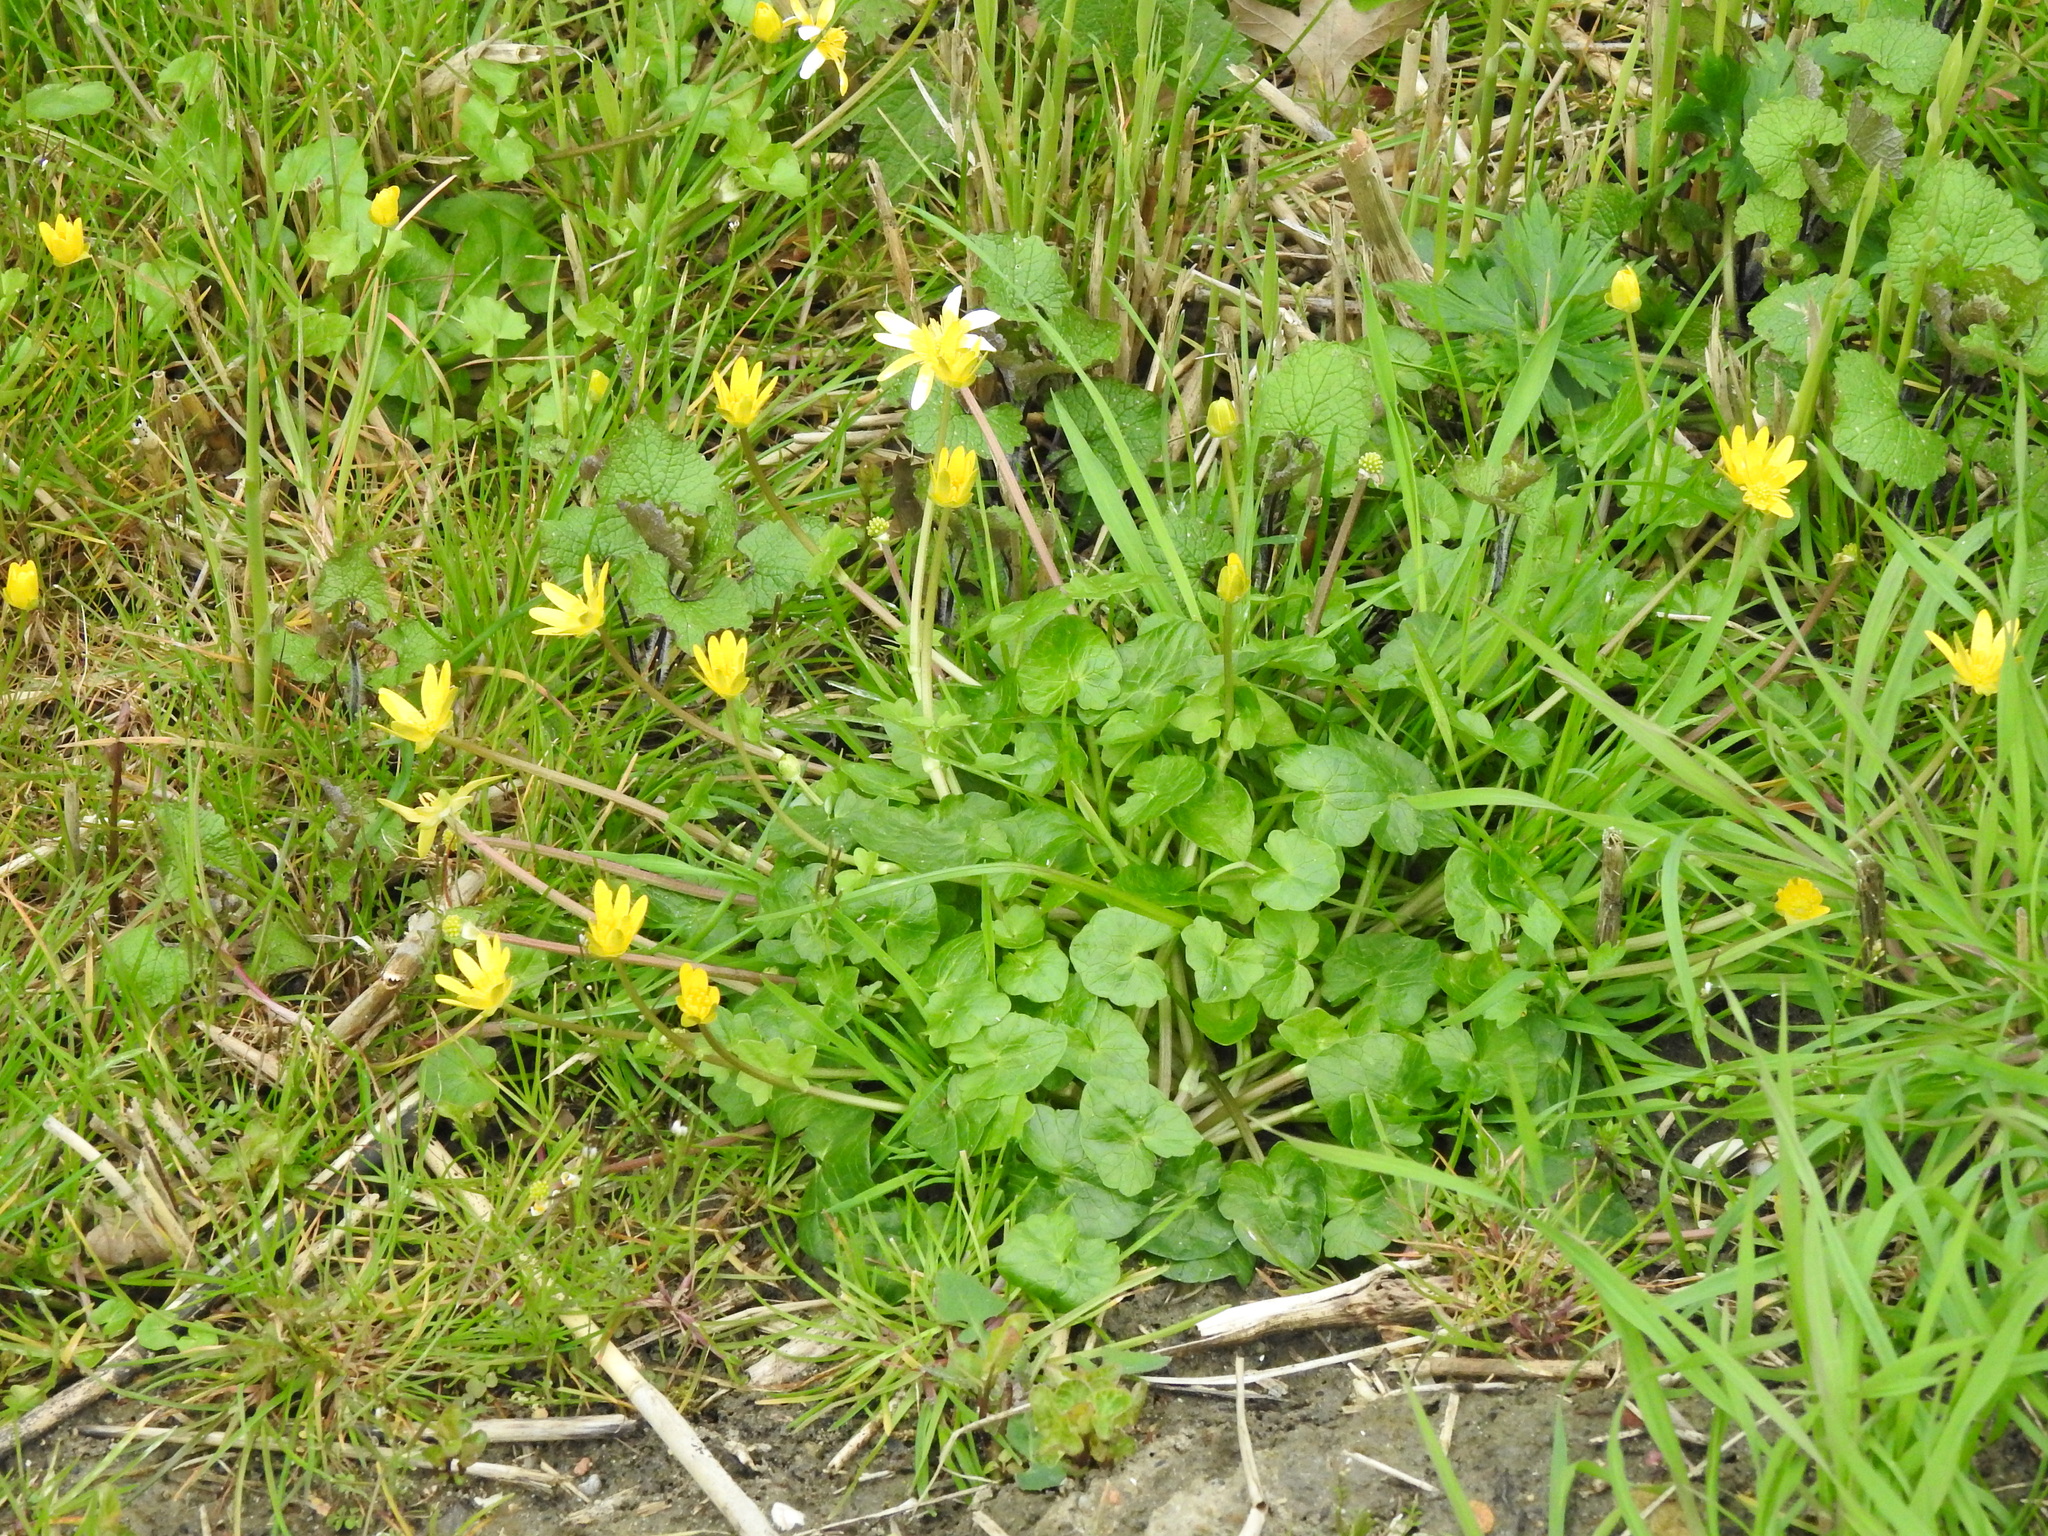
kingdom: Plantae
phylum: Tracheophyta
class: Magnoliopsida
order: Ranunculales
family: Ranunculaceae
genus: Ficaria
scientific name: Ficaria verna
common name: Lesser celandine
